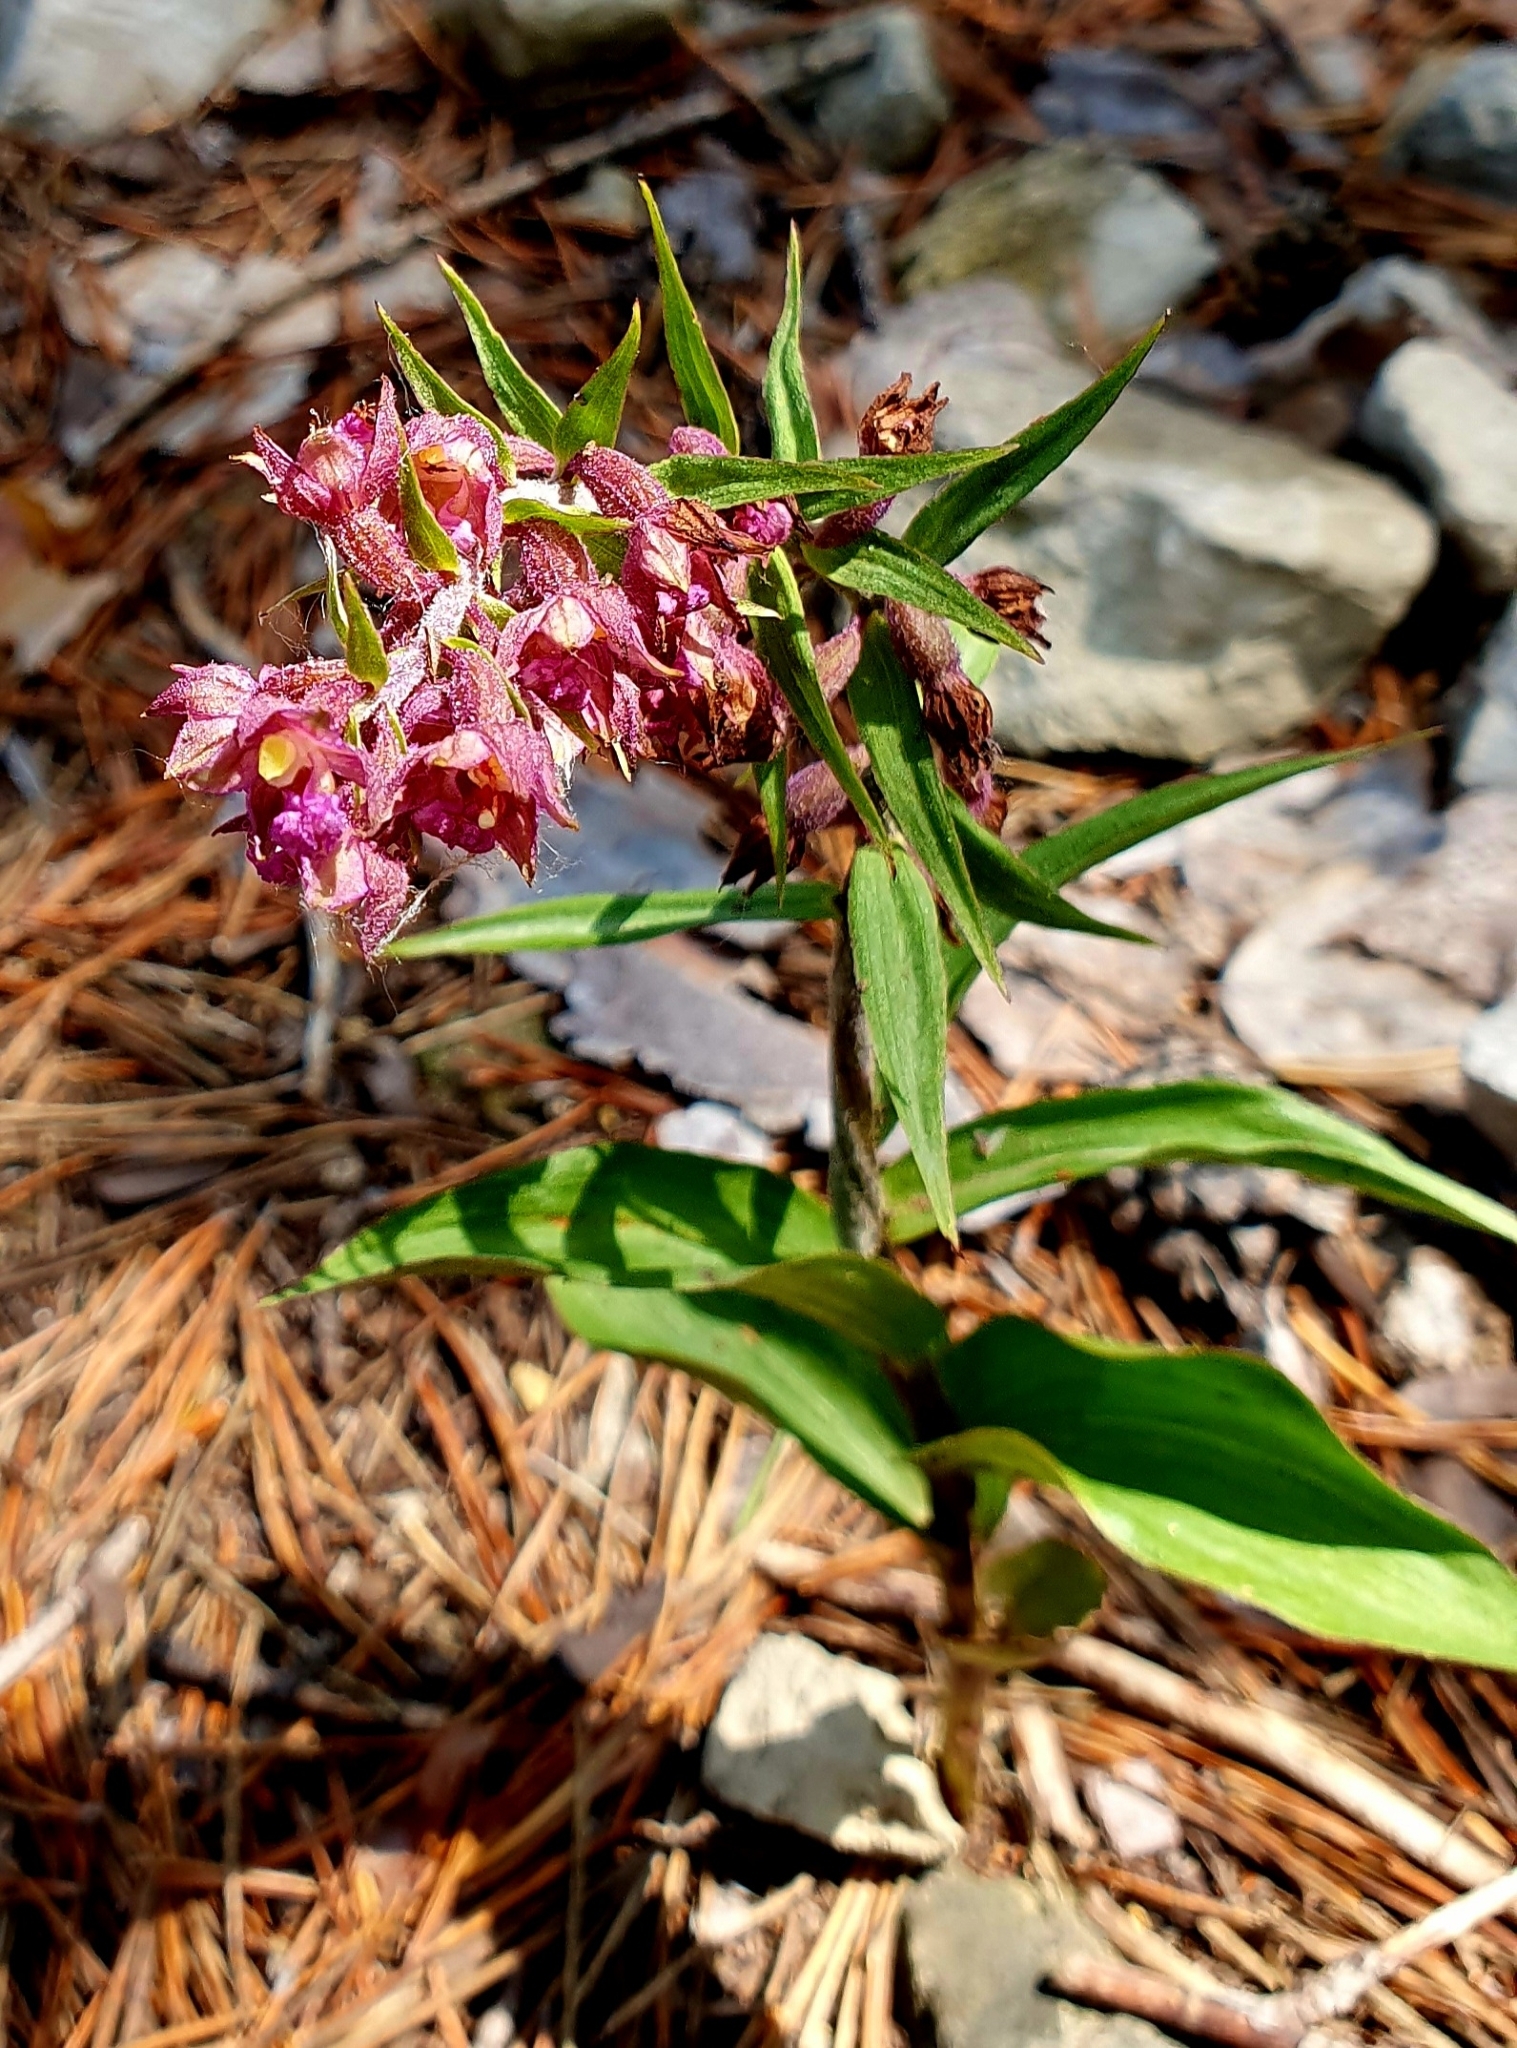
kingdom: Plantae
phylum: Tracheophyta
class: Liliopsida
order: Asparagales
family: Orchidaceae
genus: Epipactis
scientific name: Epipactis atrorubens
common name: Dark-red helleborine
